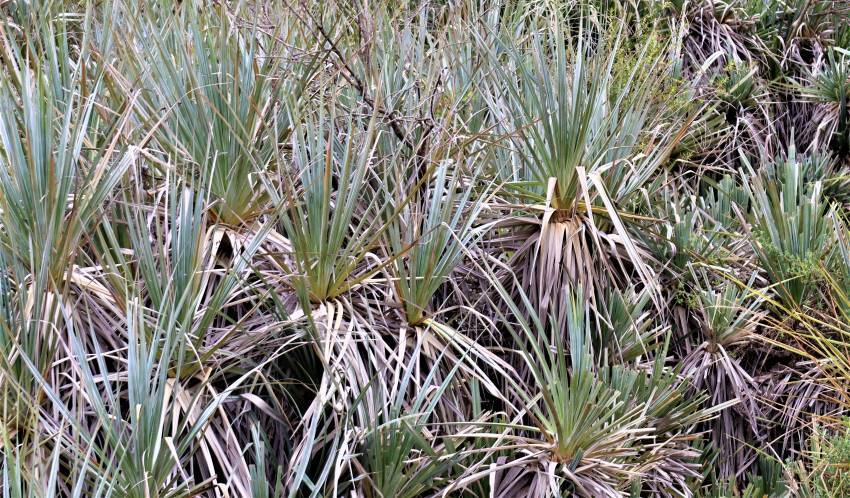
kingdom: Plantae
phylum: Tracheophyta
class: Liliopsida
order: Poales
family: Thurniaceae
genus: Prionium
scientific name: Prionium serratum
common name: Palmiet
